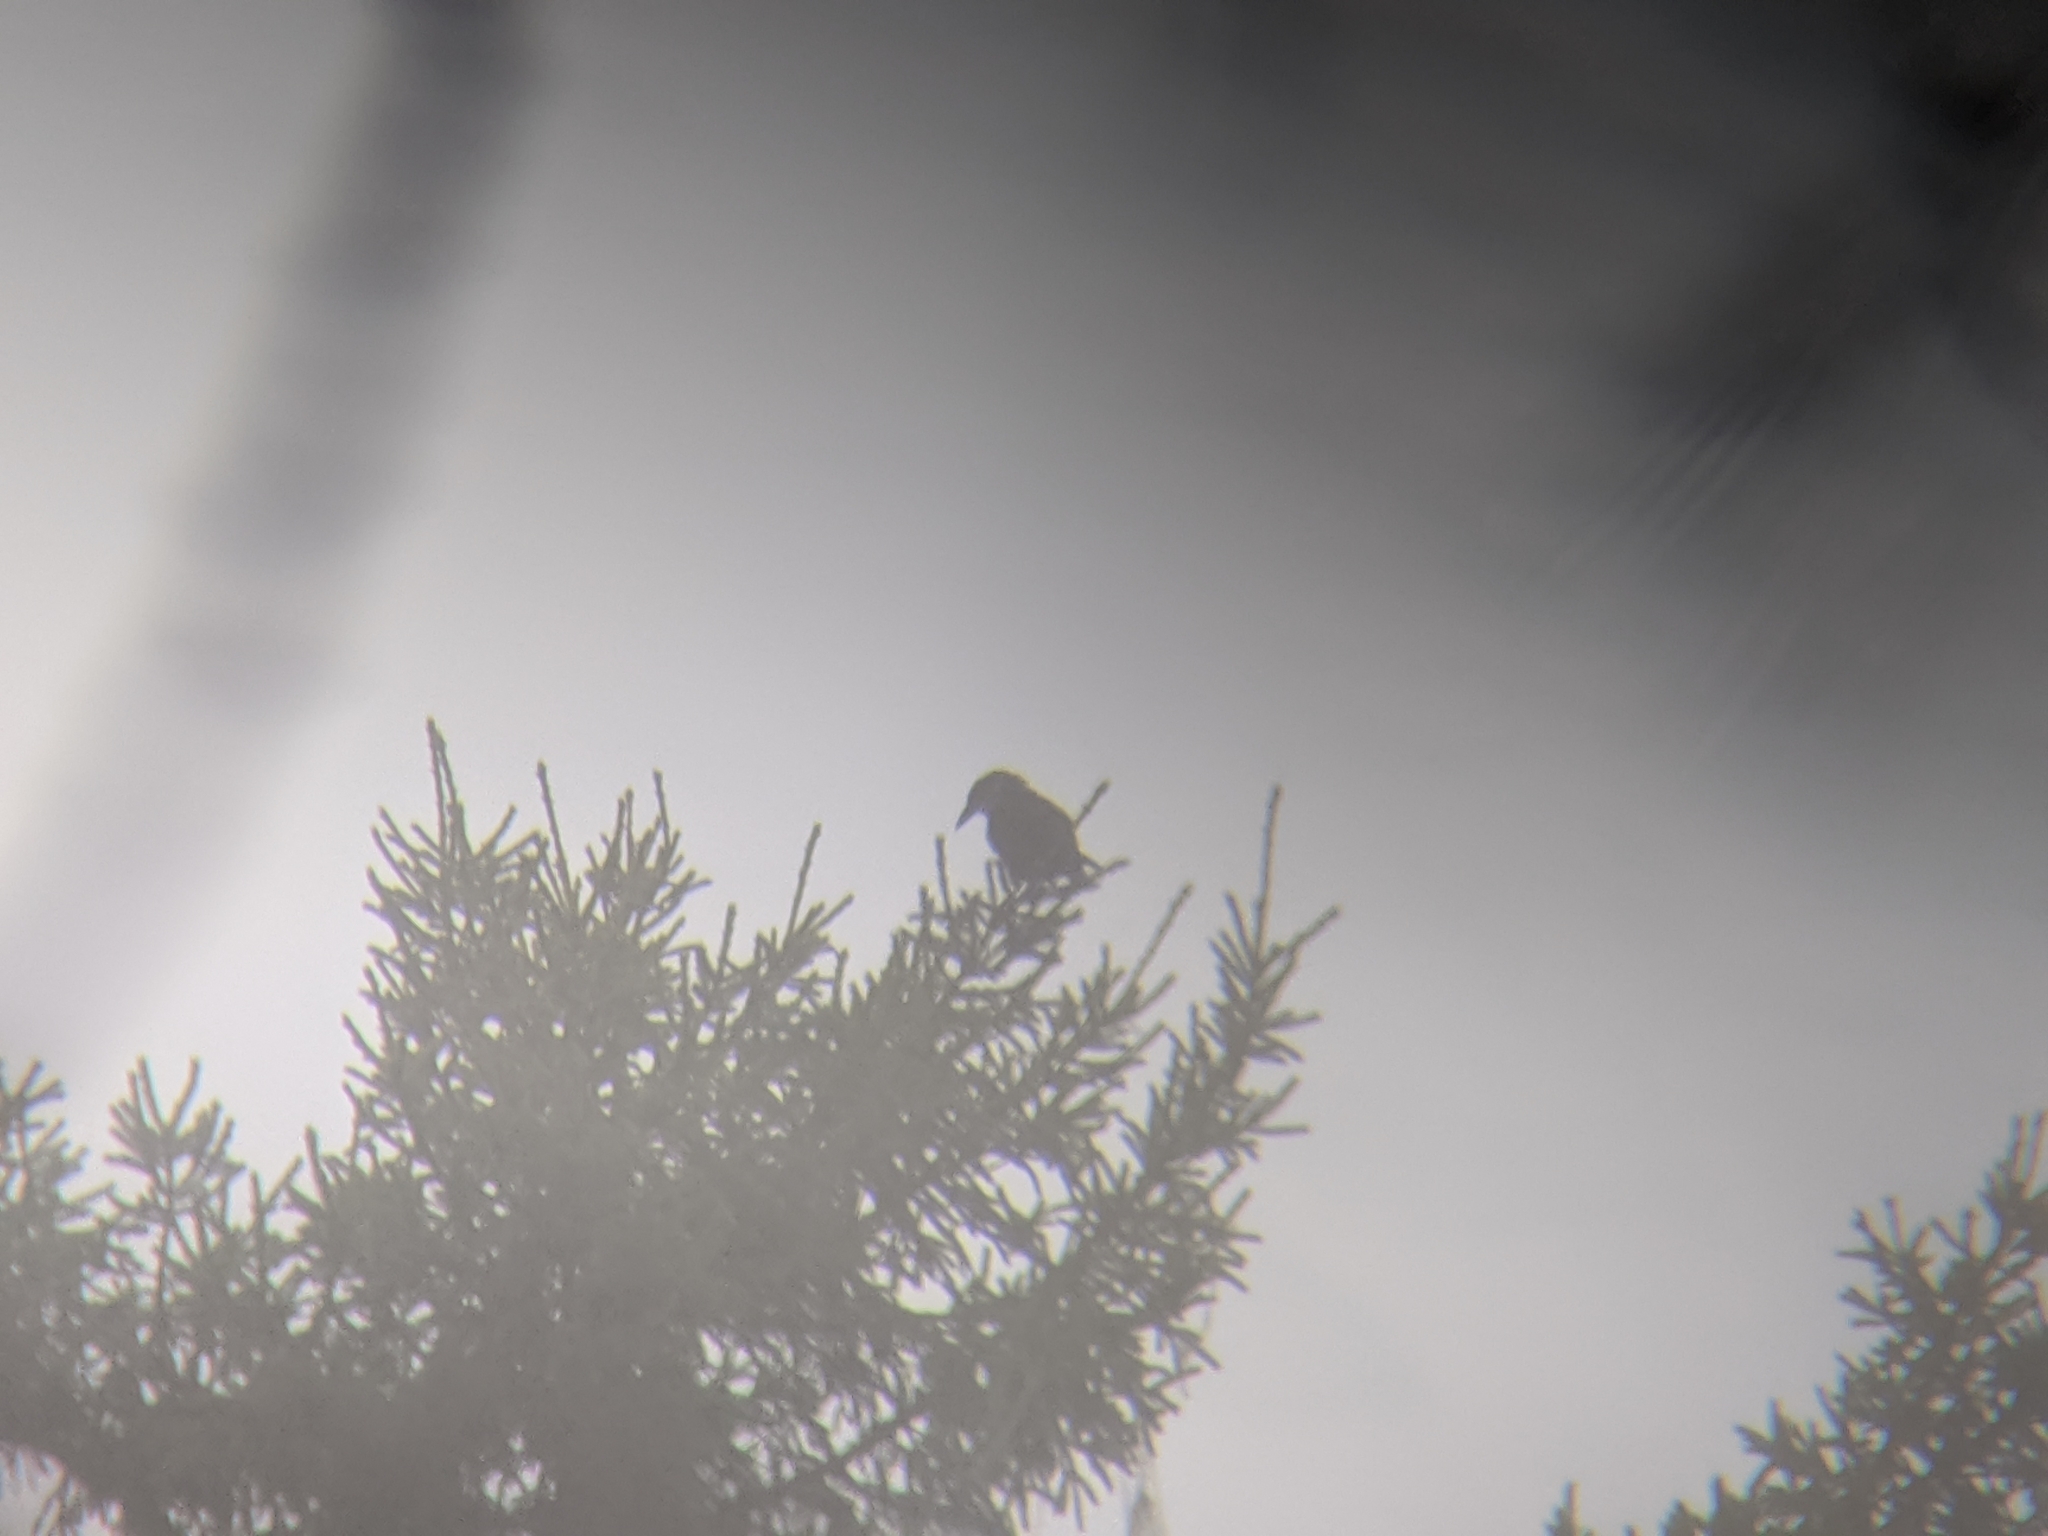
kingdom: Animalia
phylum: Chordata
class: Aves
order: Passeriformes
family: Corvidae
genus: Nucifraga
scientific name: Nucifraga caryocatactes
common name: Spotted nutcracker
